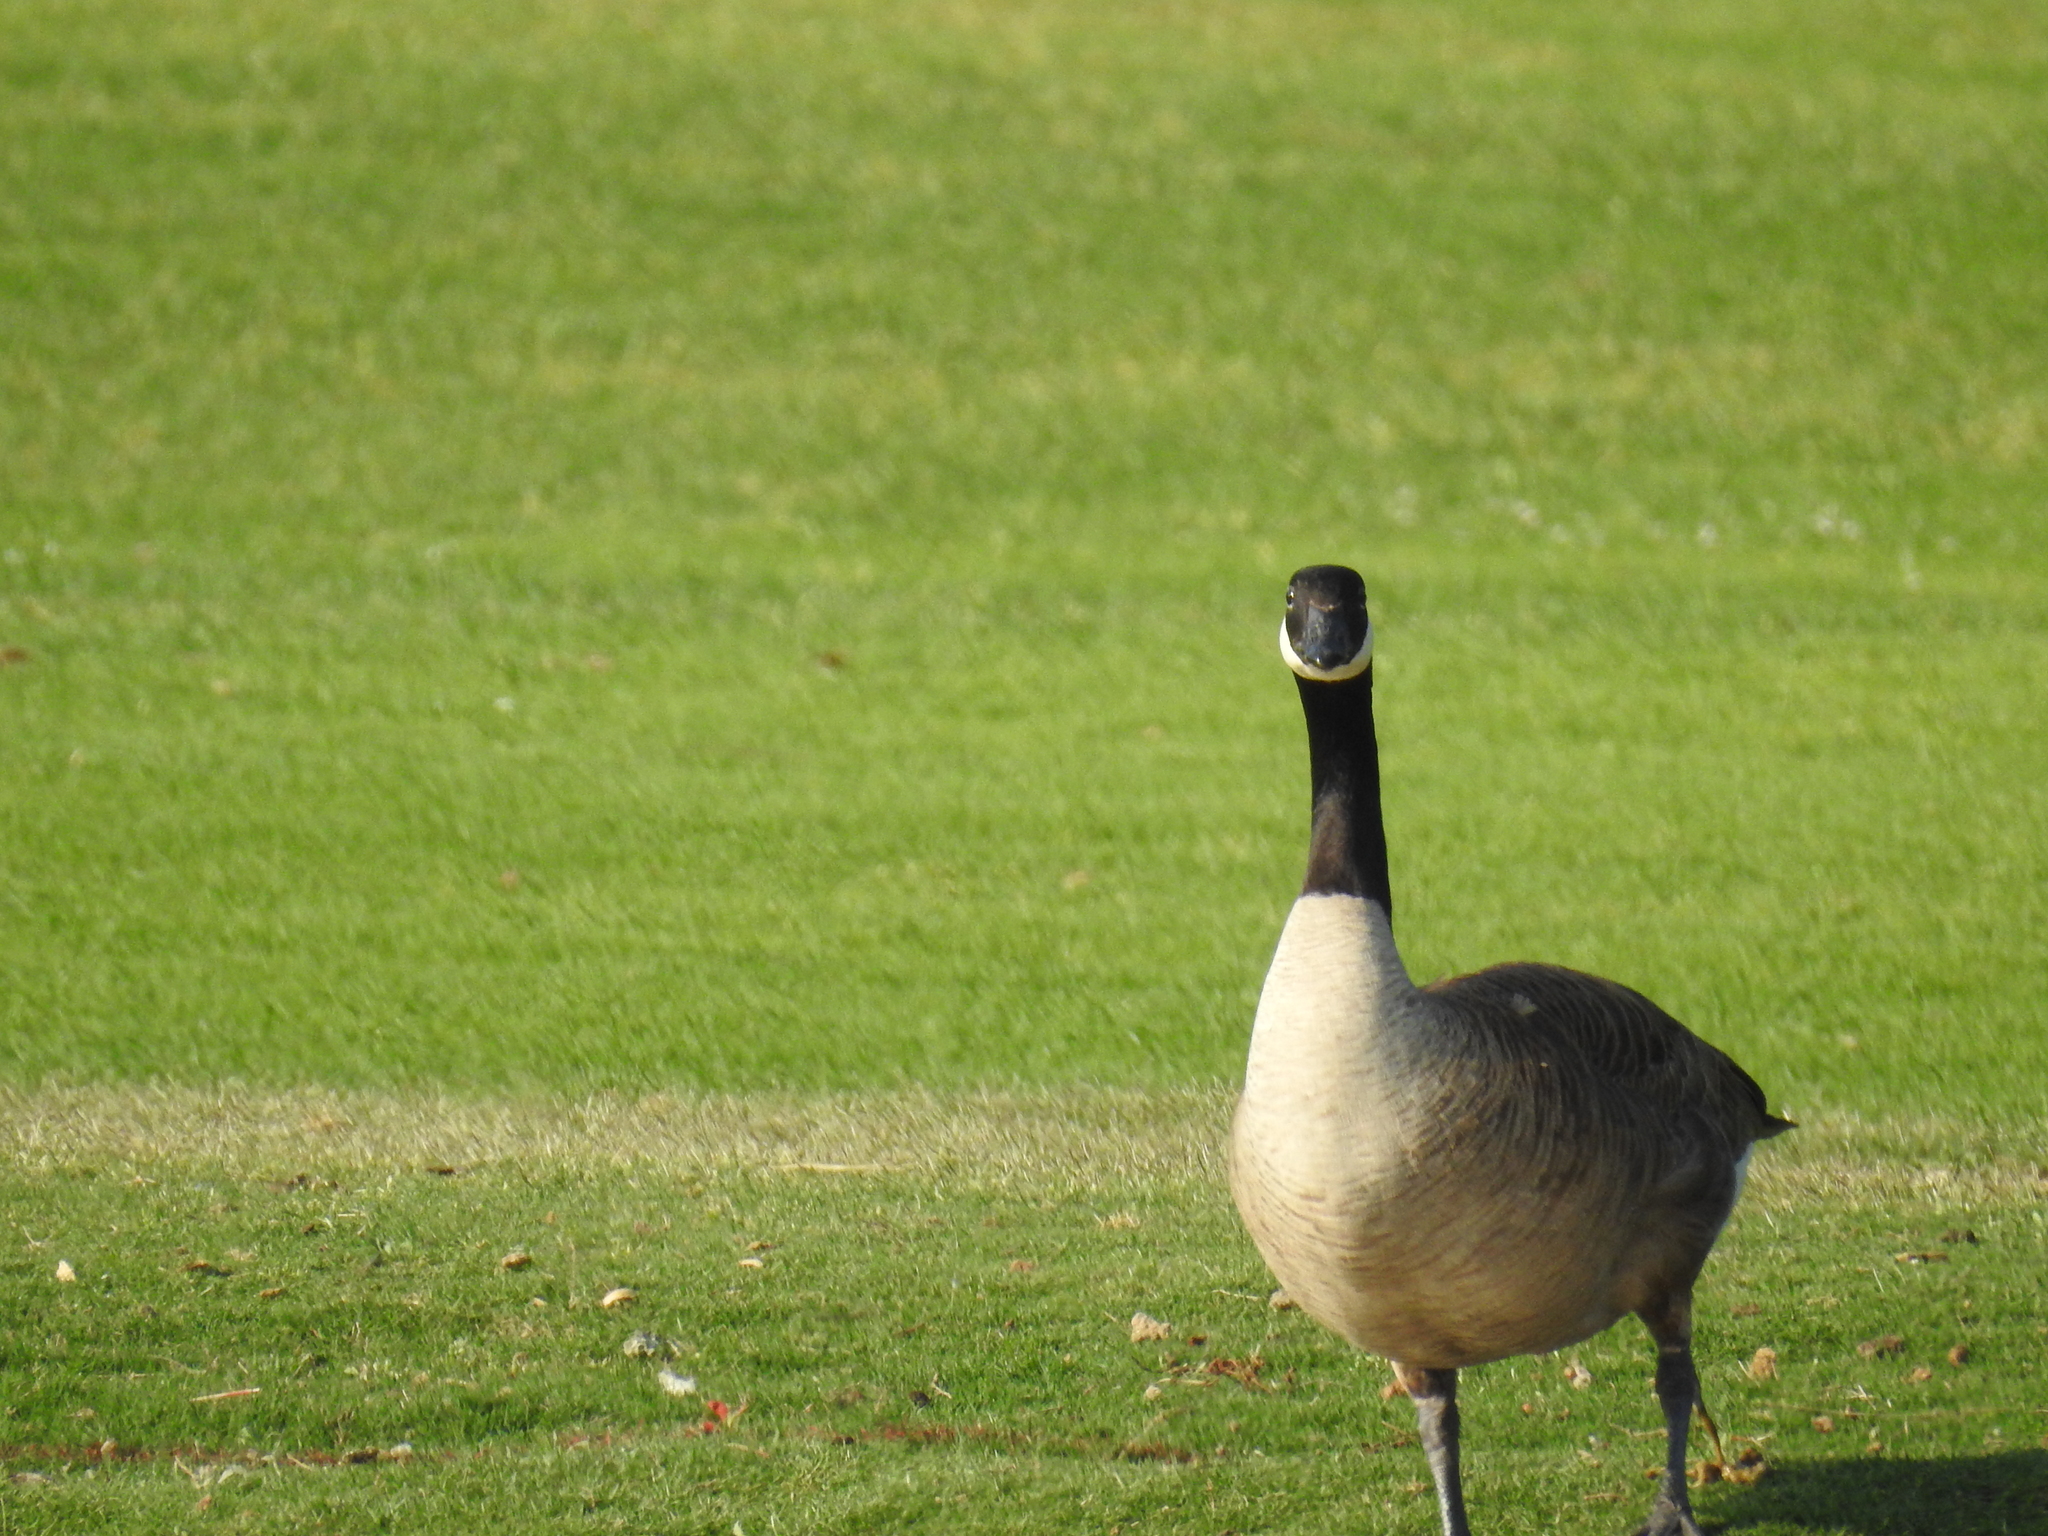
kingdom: Animalia
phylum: Chordata
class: Aves
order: Anseriformes
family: Anatidae
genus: Branta
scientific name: Branta canadensis
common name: Canada goose
